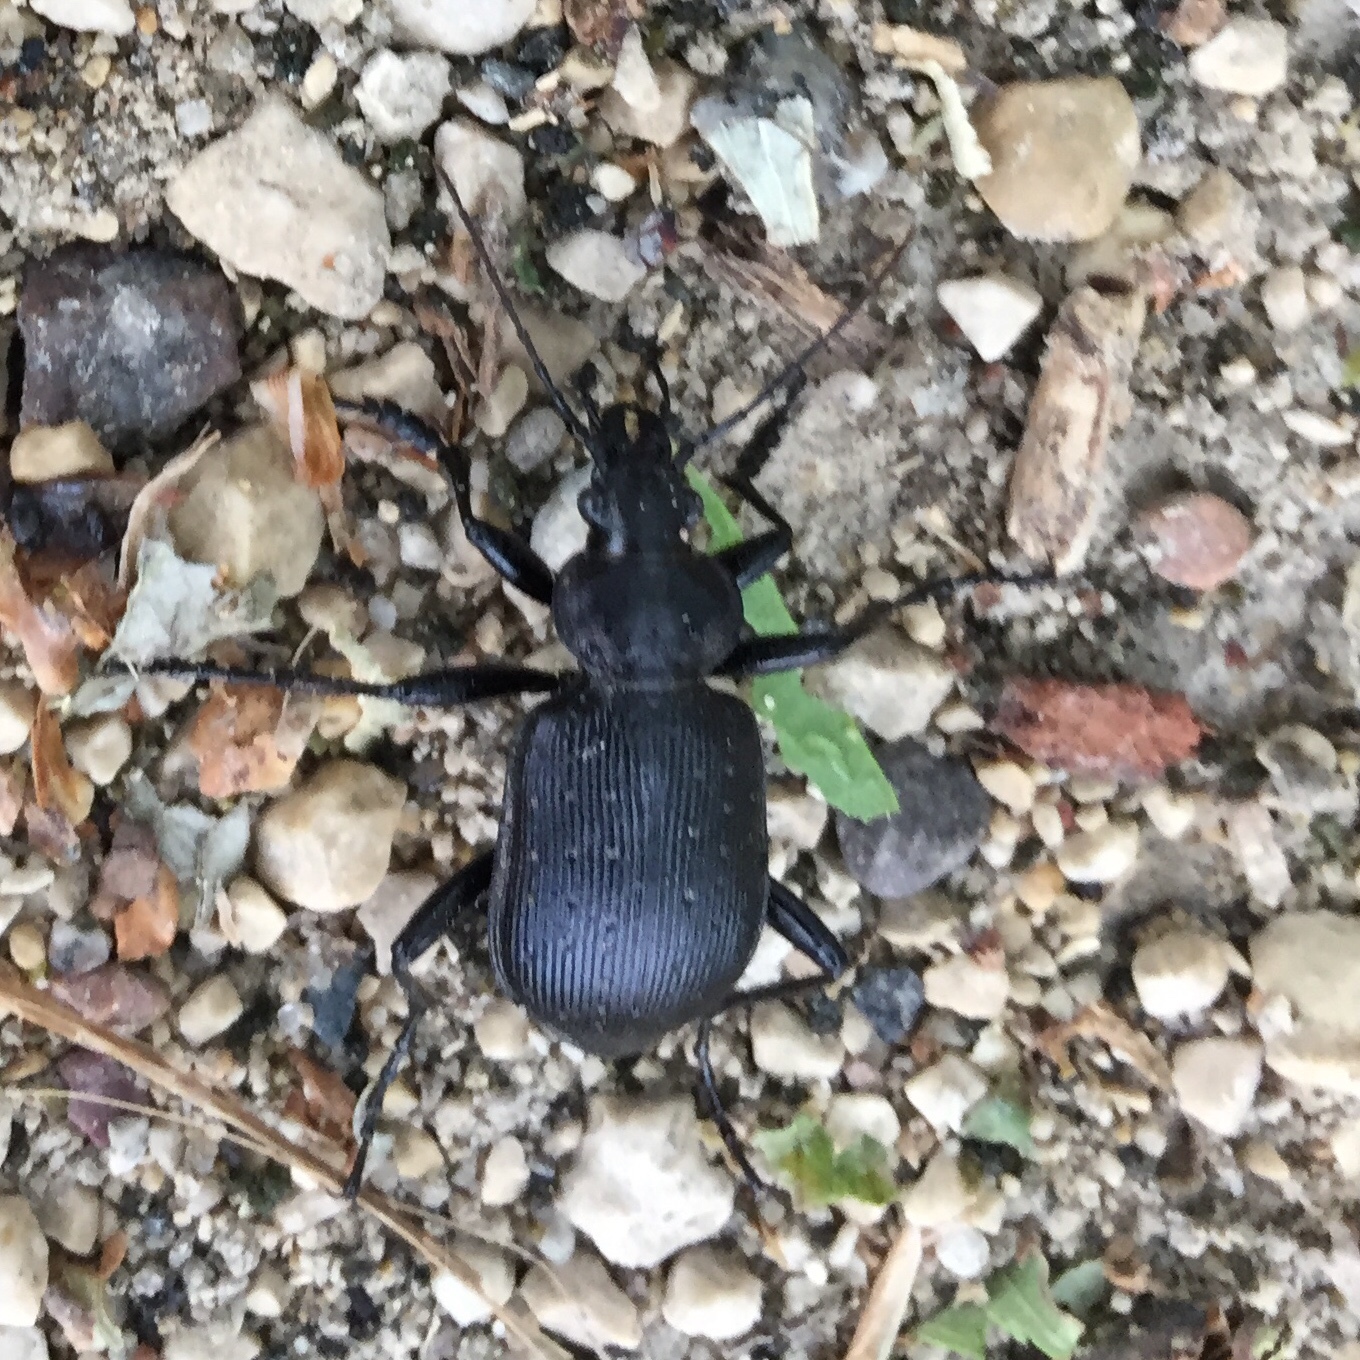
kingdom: Animalia
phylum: Arthropoda
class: Insecta
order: Coleoptera
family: Carabidae
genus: Calosoma
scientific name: Calosoma frigidum
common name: Cold-country caterpillar hunter
